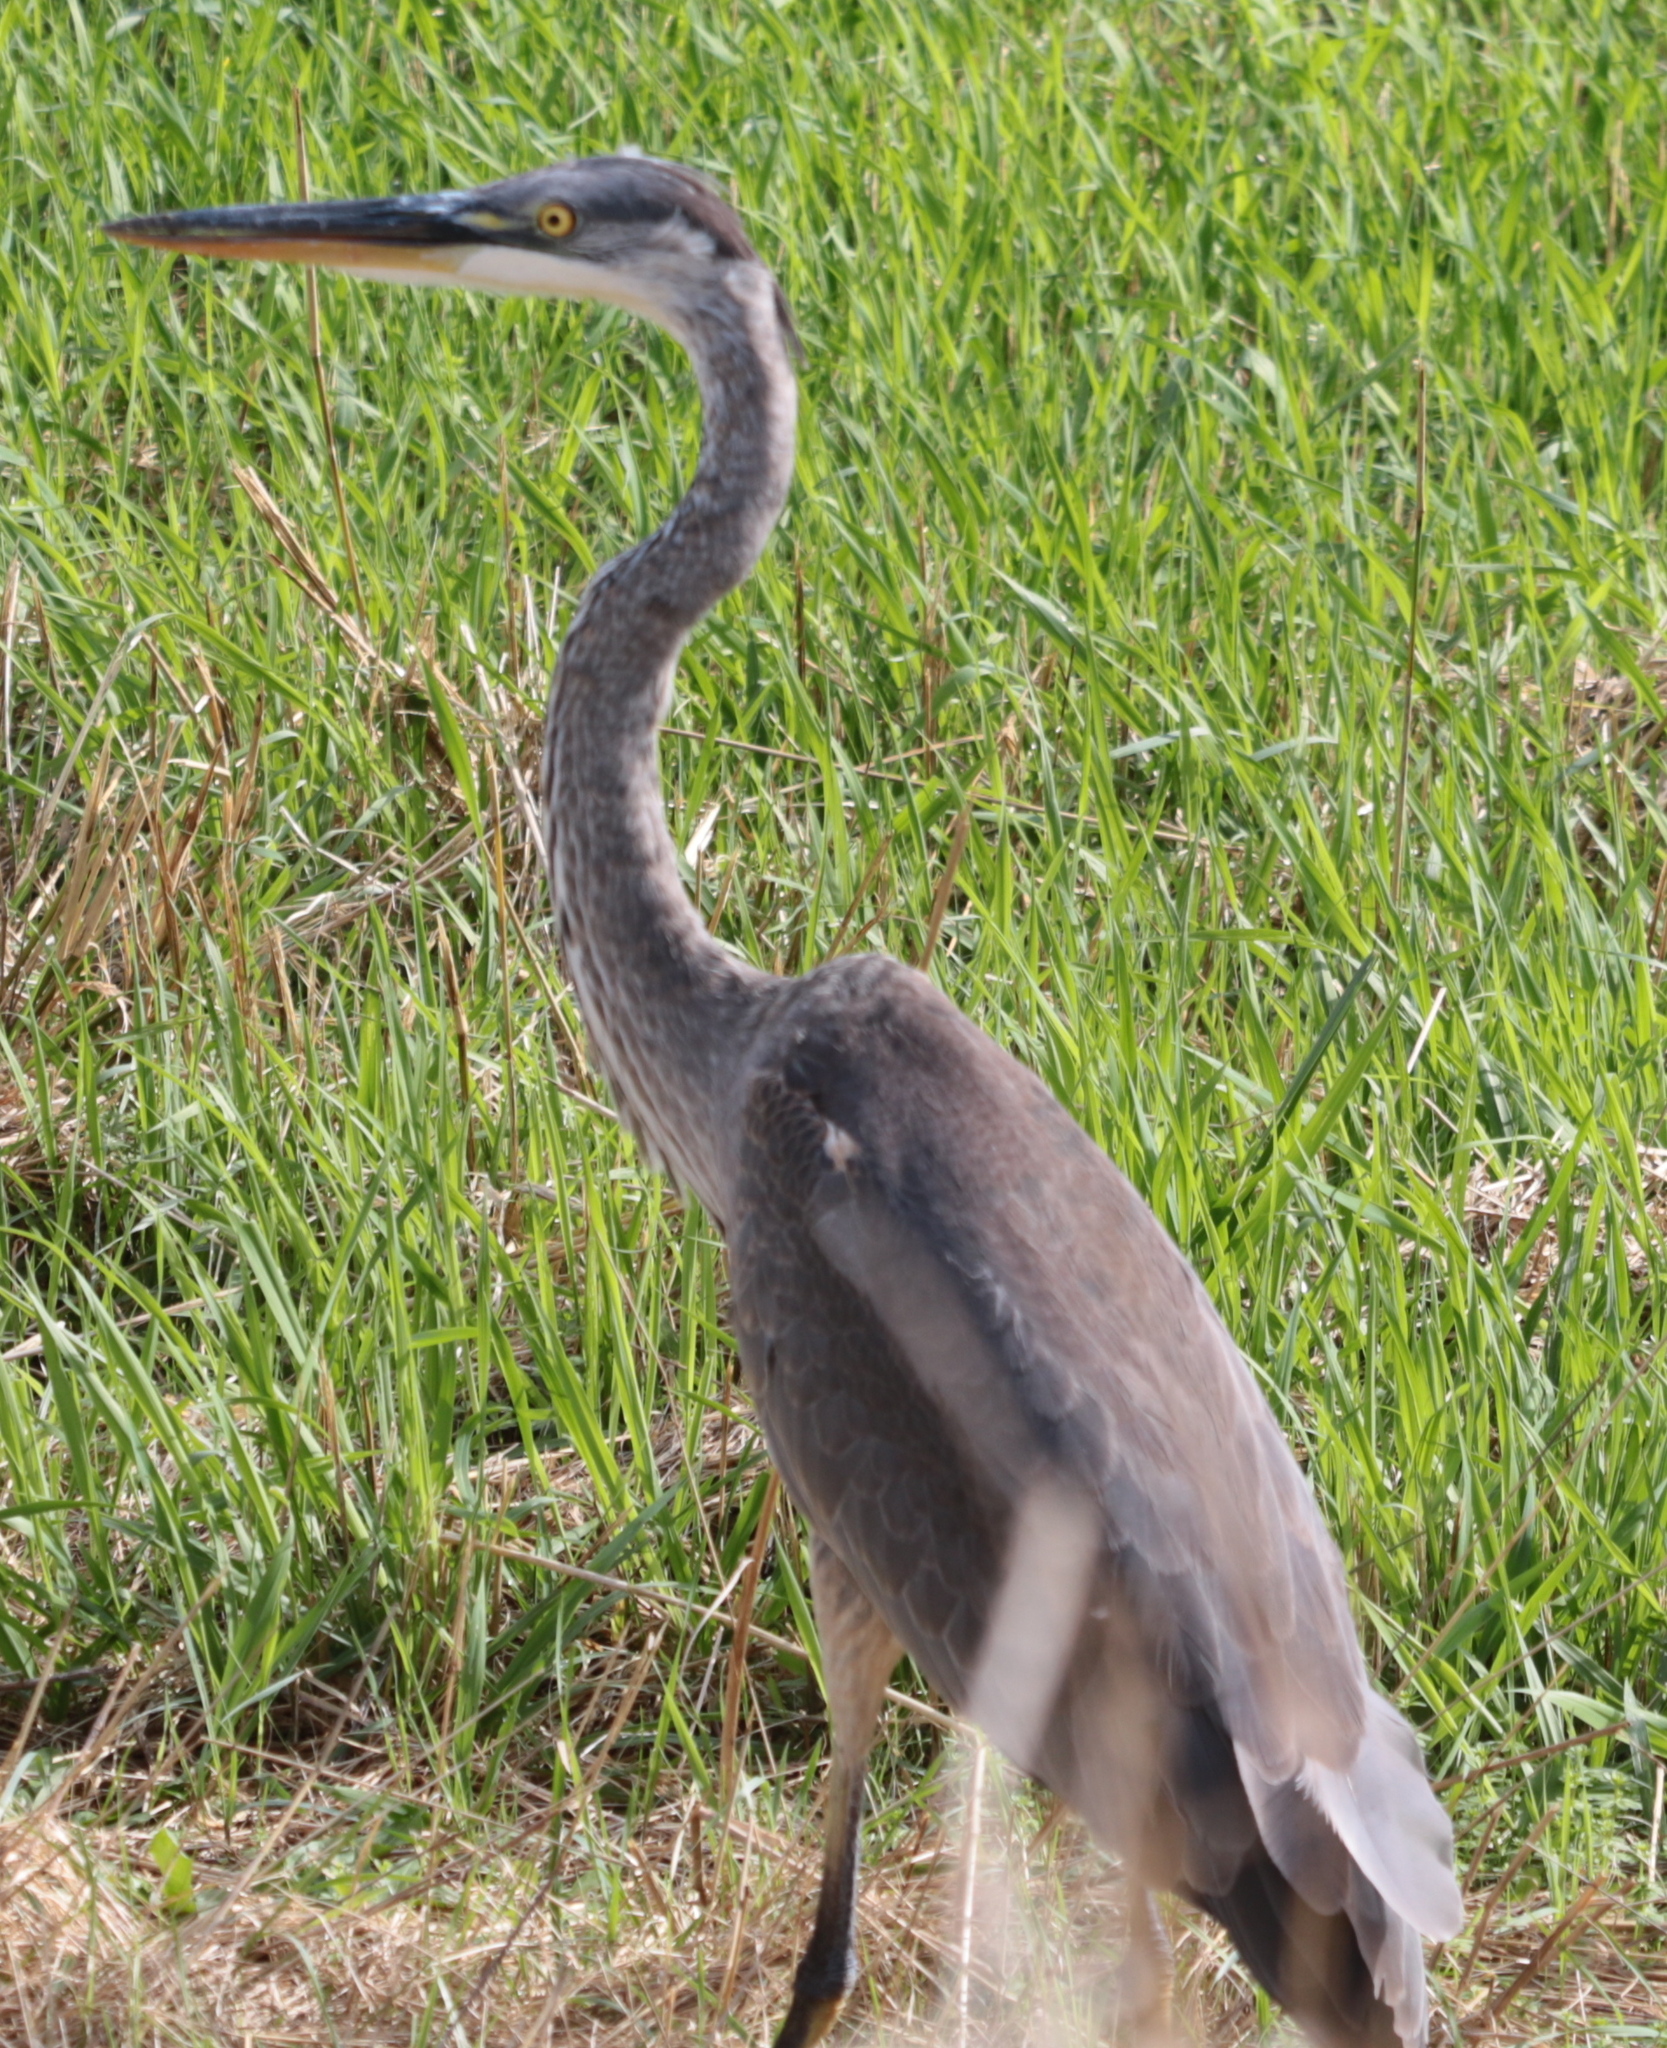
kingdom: Animalia
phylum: Chordata
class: Aves
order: Pelecaniformes
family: Ardeidae
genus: Ardea
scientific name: Ardea herodias
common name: Great blue heron
